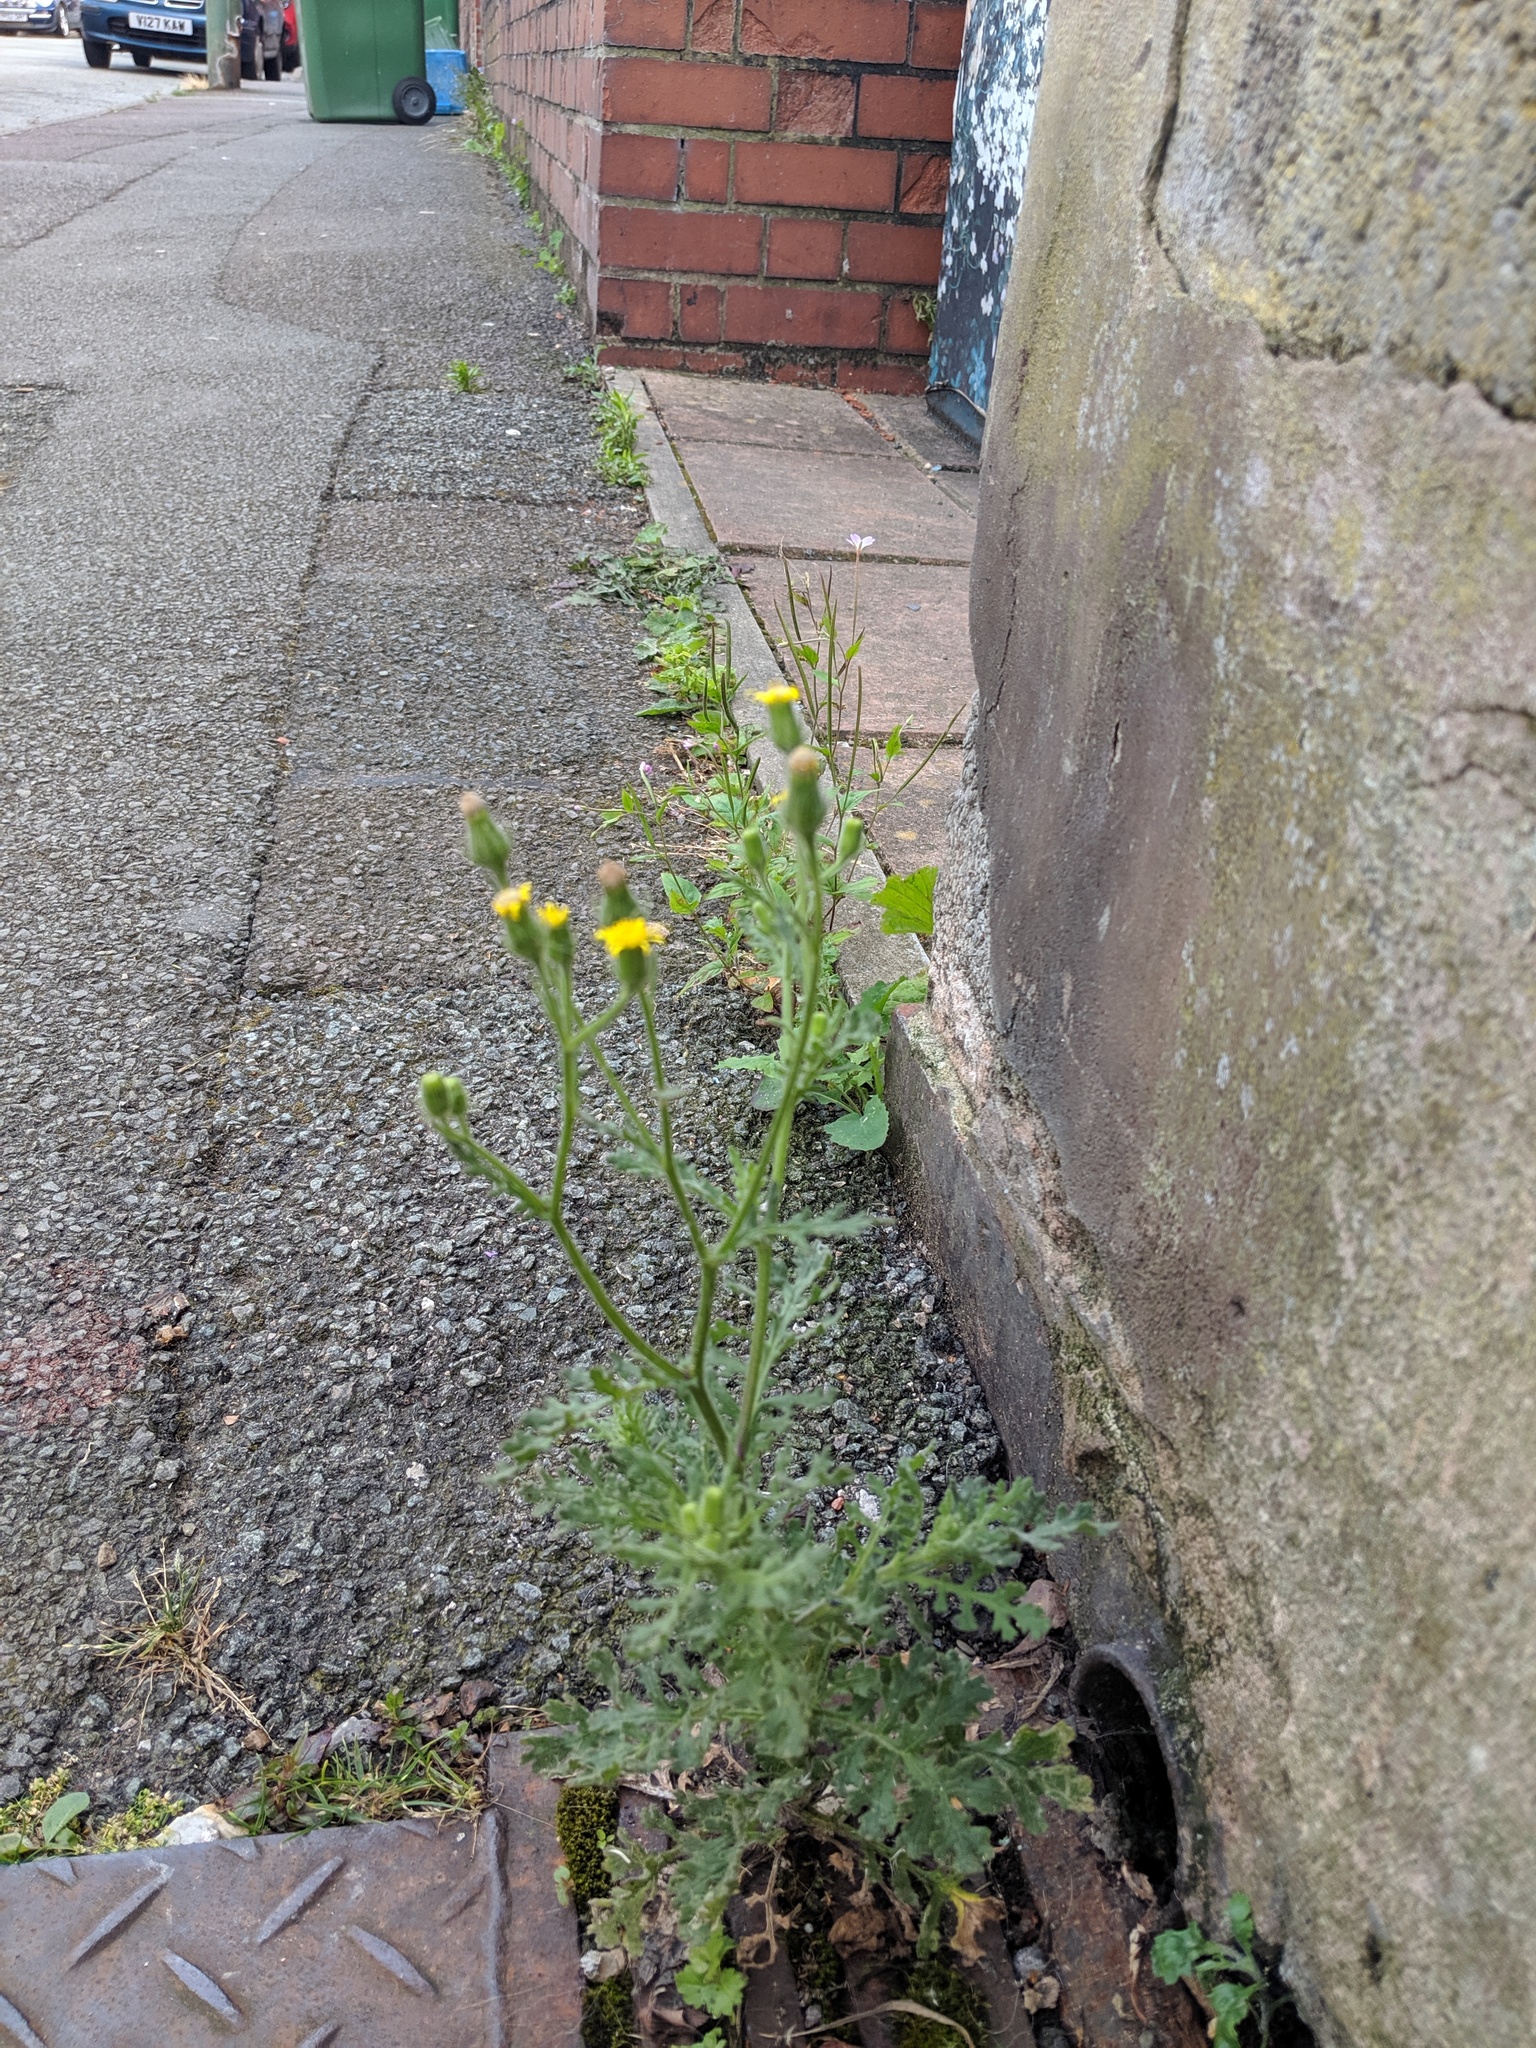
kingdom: Plantae
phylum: Tracheophyta
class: Magnoliopsida
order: Asterales
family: Asteraceae
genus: Senecio
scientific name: Senecio viscosus
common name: Sticky groundsel
